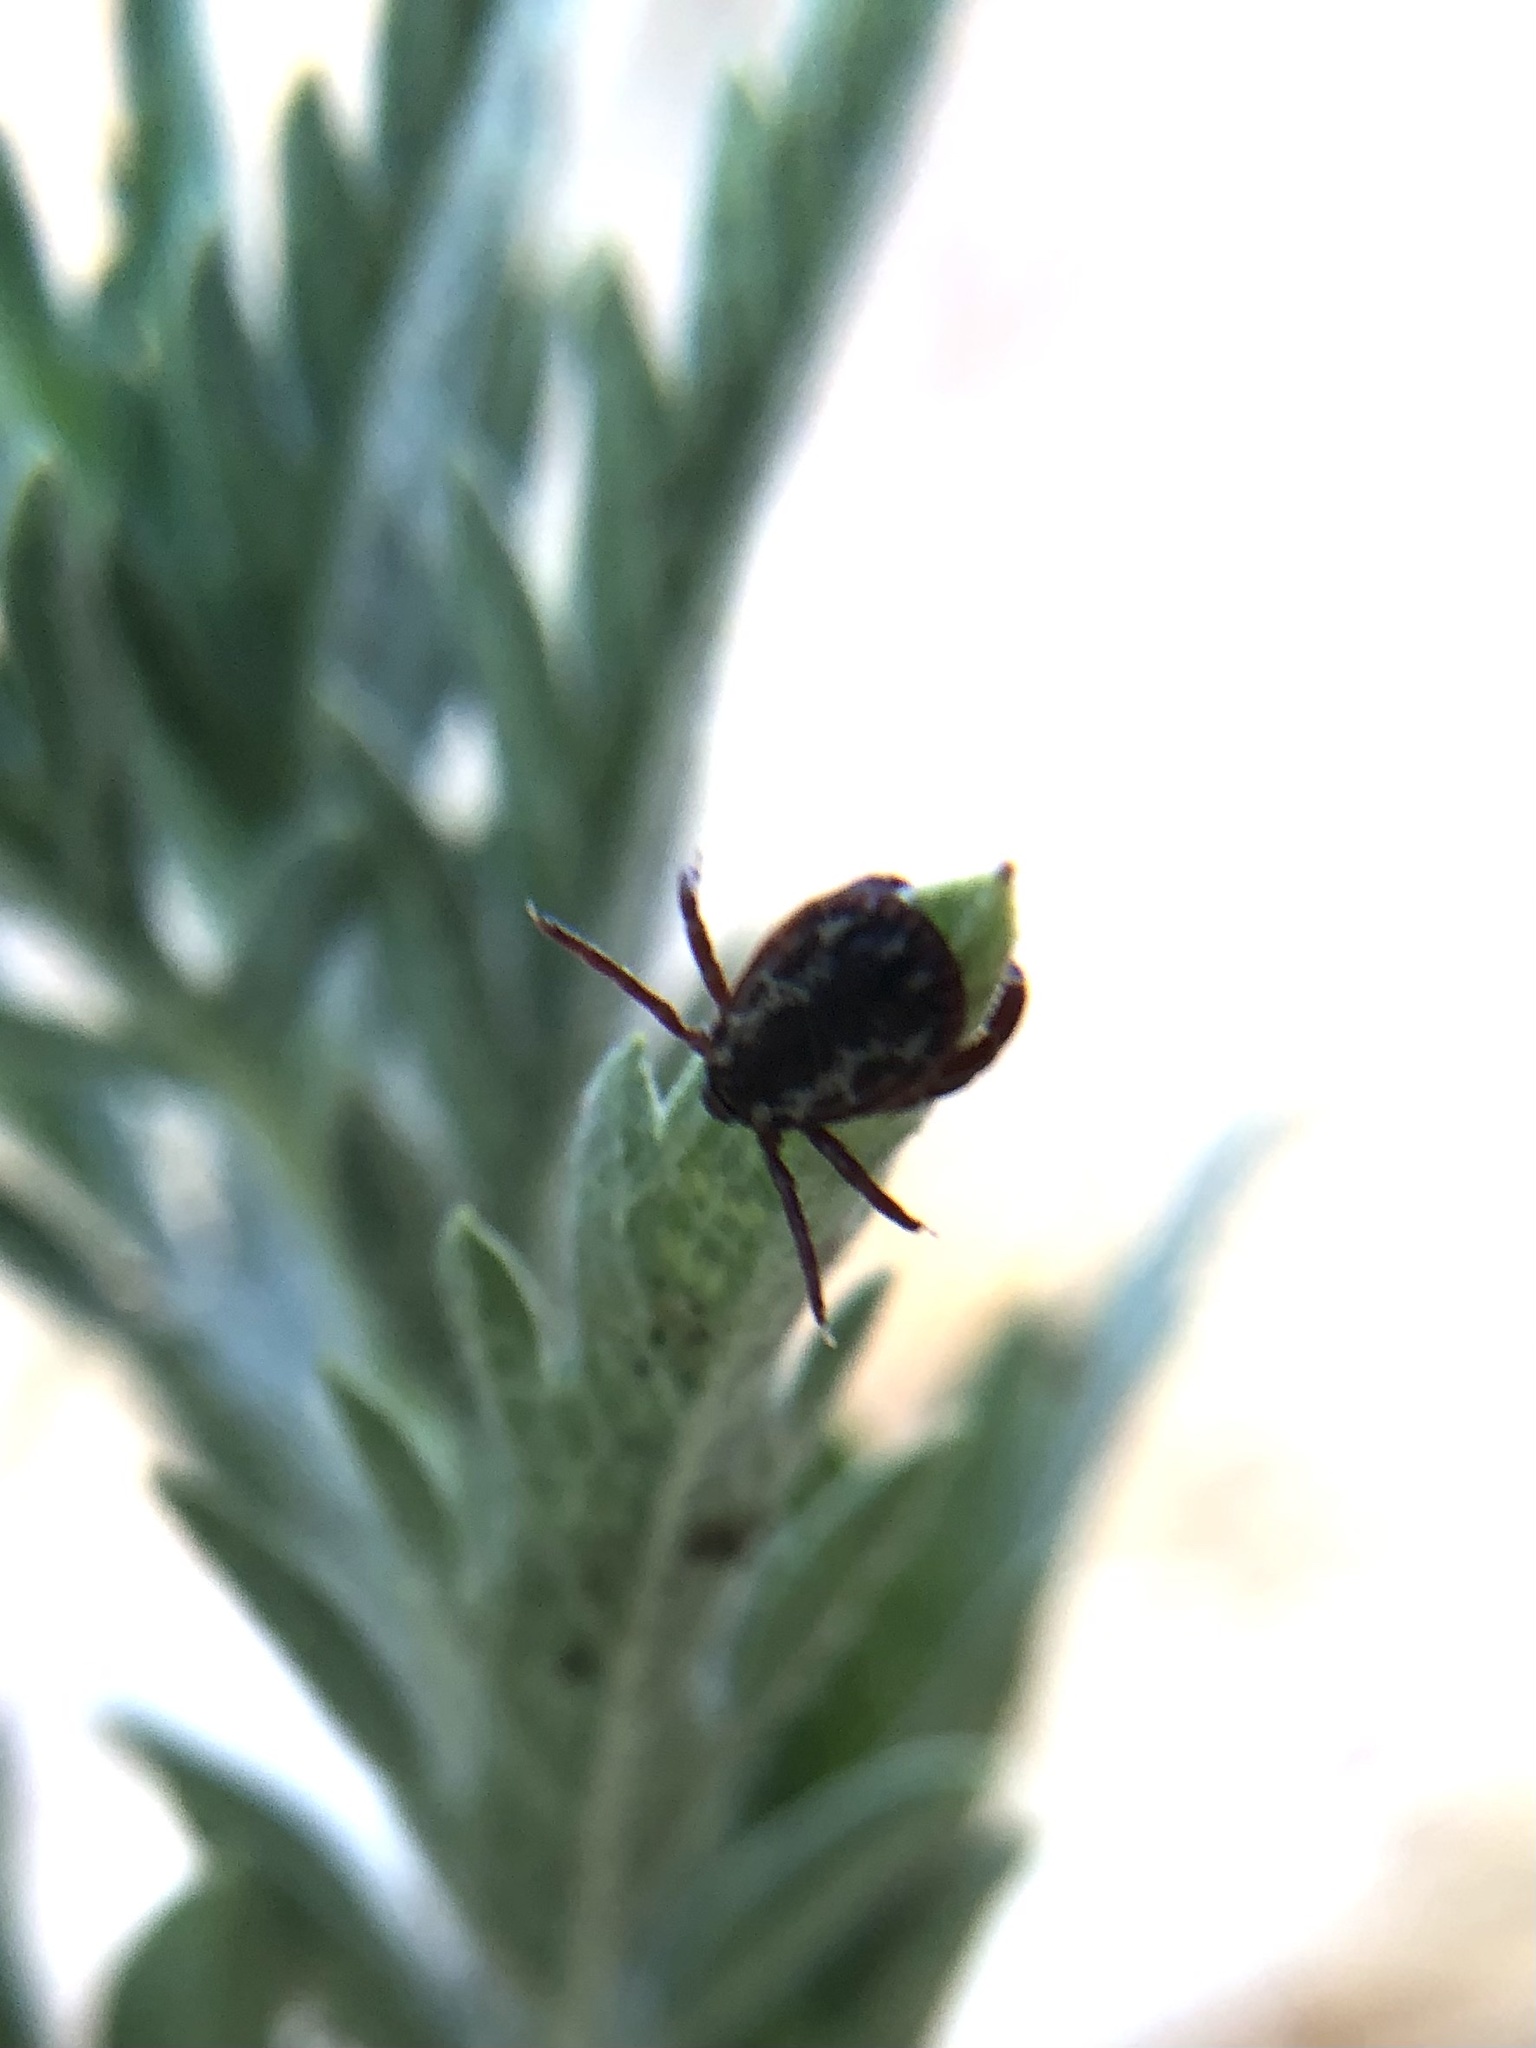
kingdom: Animalia
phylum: Arthropoda
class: Arachnida
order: Ixodida
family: Ixodidae
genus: Dermacentor
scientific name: Dermacentor variabilis
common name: American dog tick
